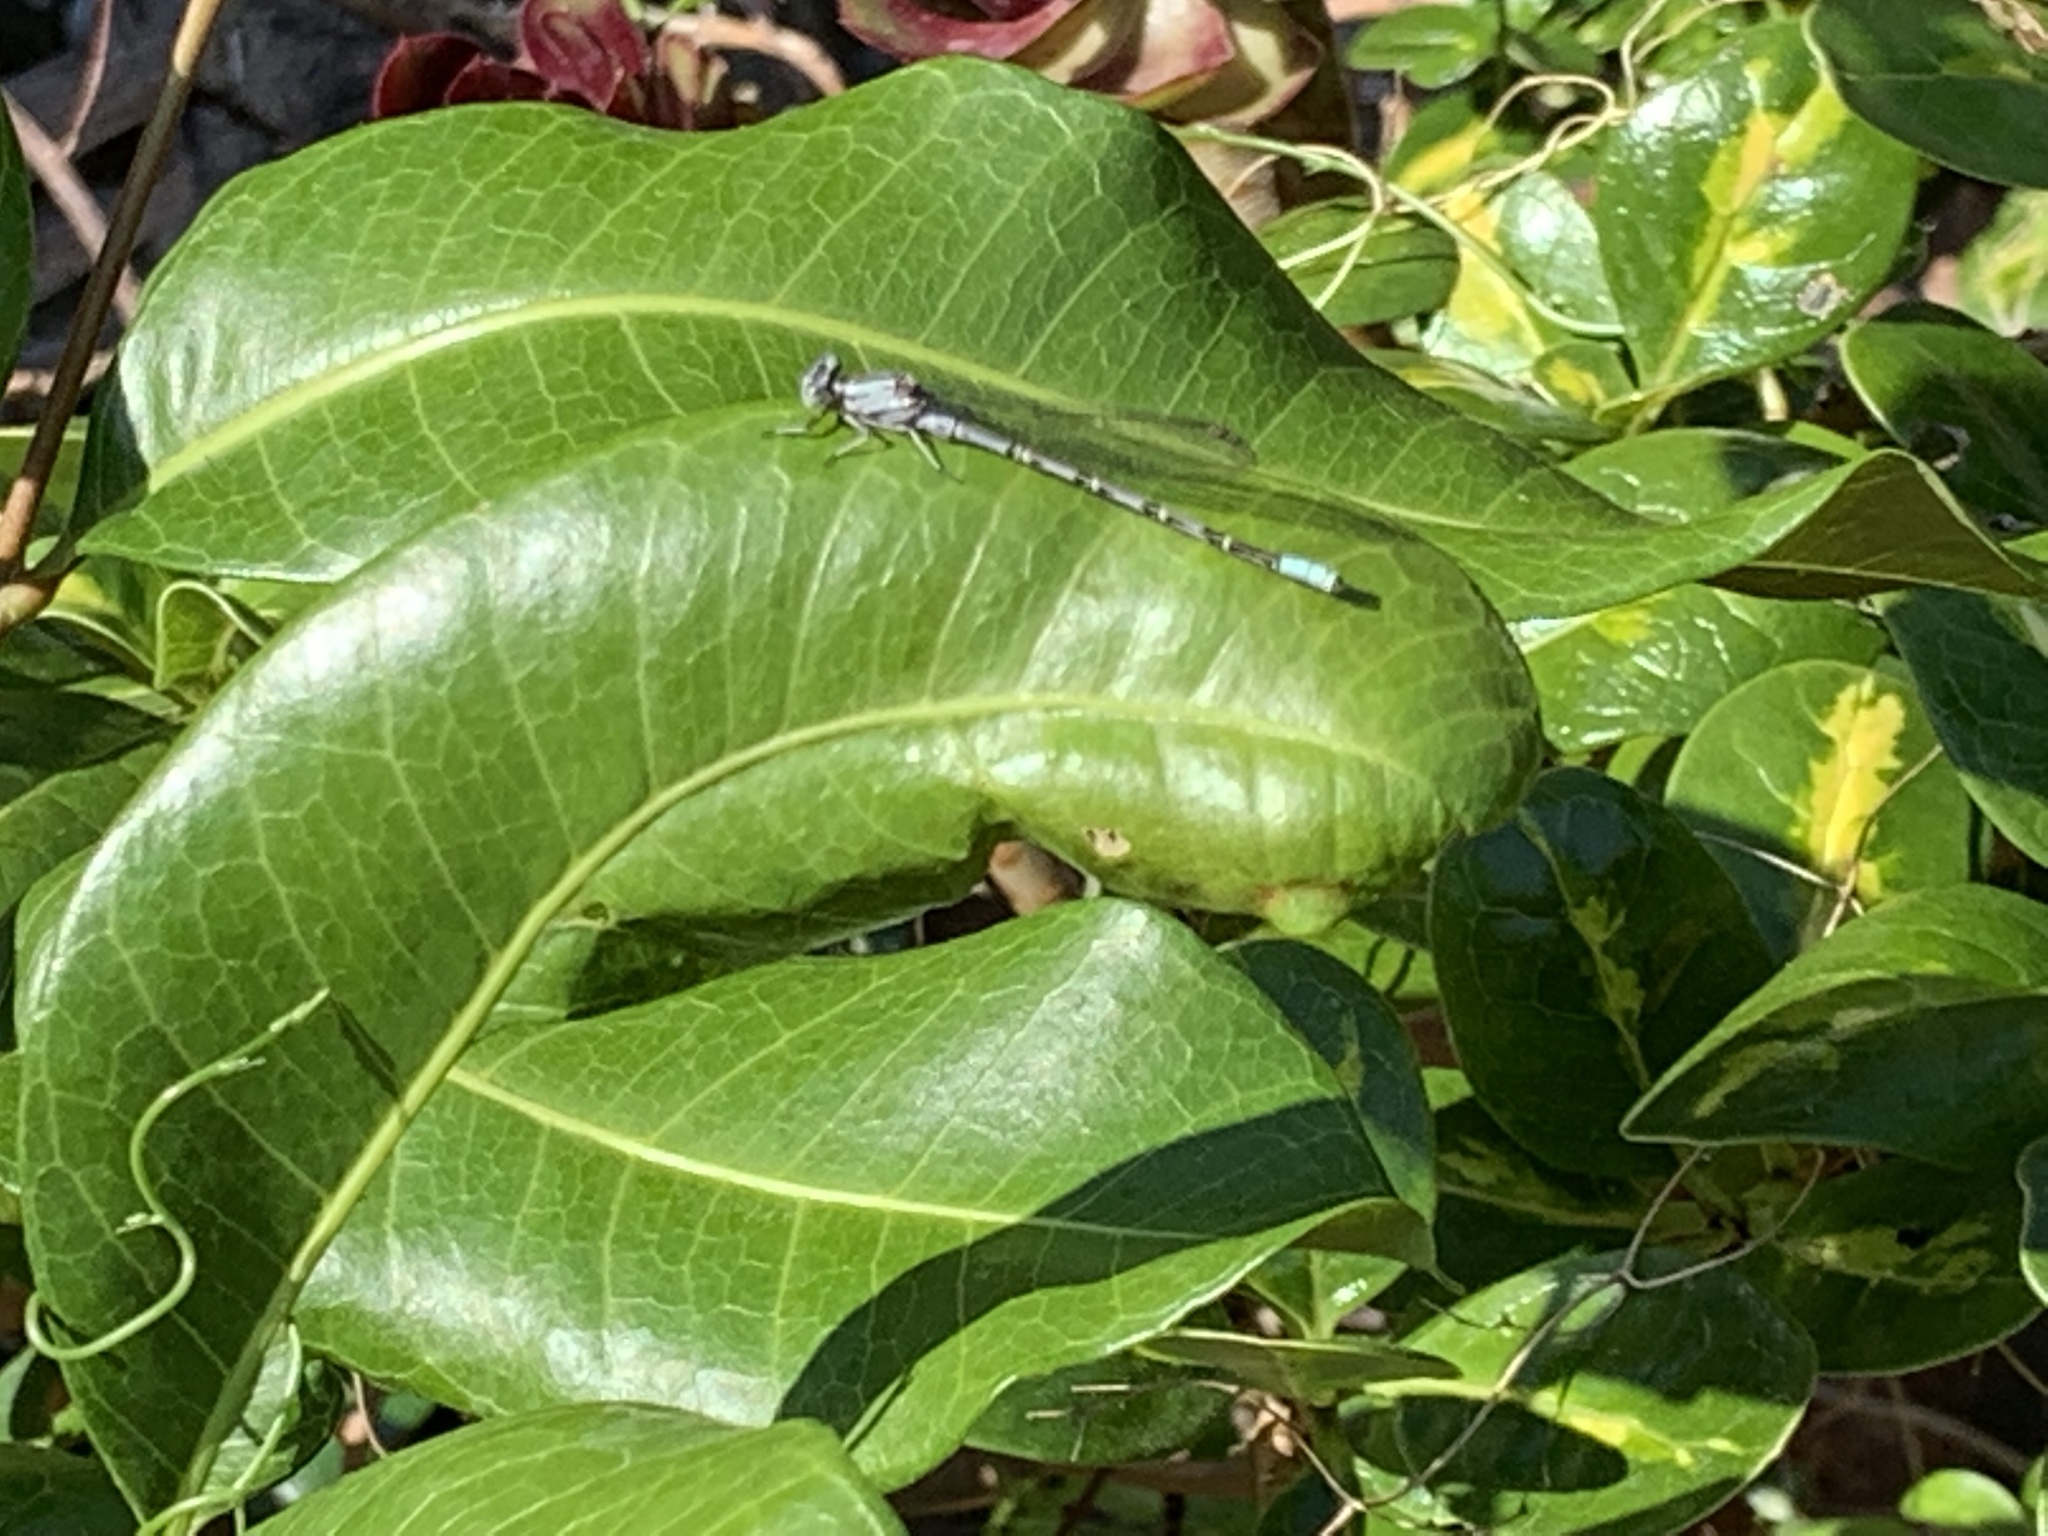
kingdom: Animalia
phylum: Arthropoda
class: Insecta
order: Odonata
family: Coenagrionidae
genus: Argia
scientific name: Argia vivida
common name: Vivid dancer
